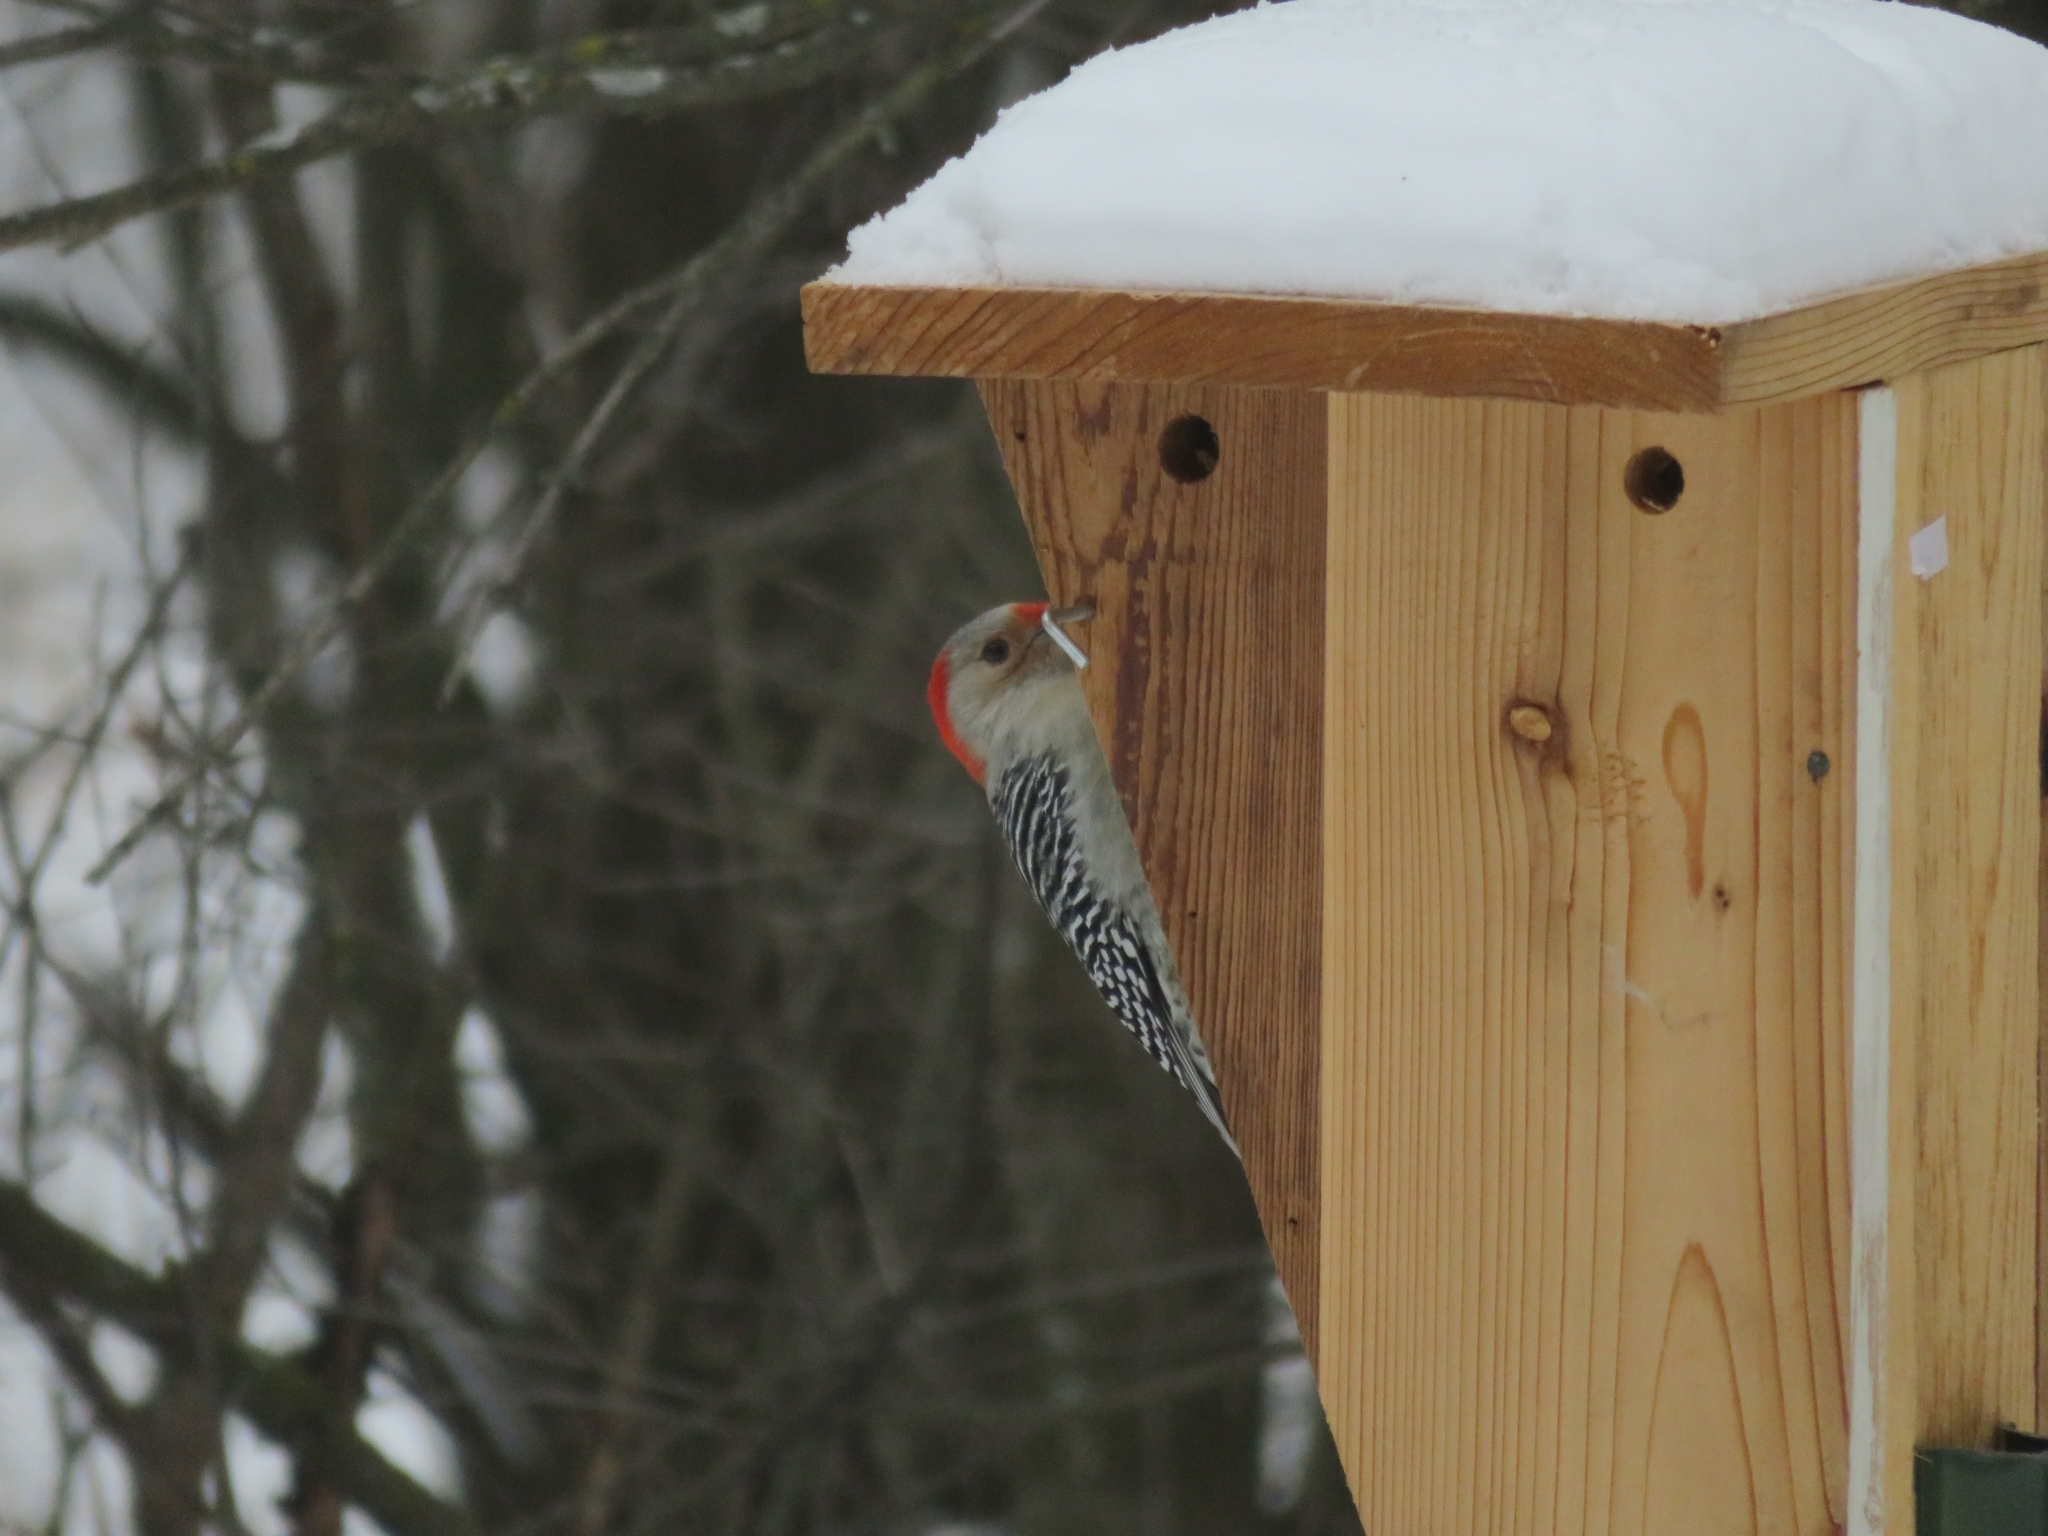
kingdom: Animalia
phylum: Chordata
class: Aves
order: Piciformes
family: Picidae
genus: Melanerpes
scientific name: Melanerpes carolinus
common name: Red-bellied woodpecker
